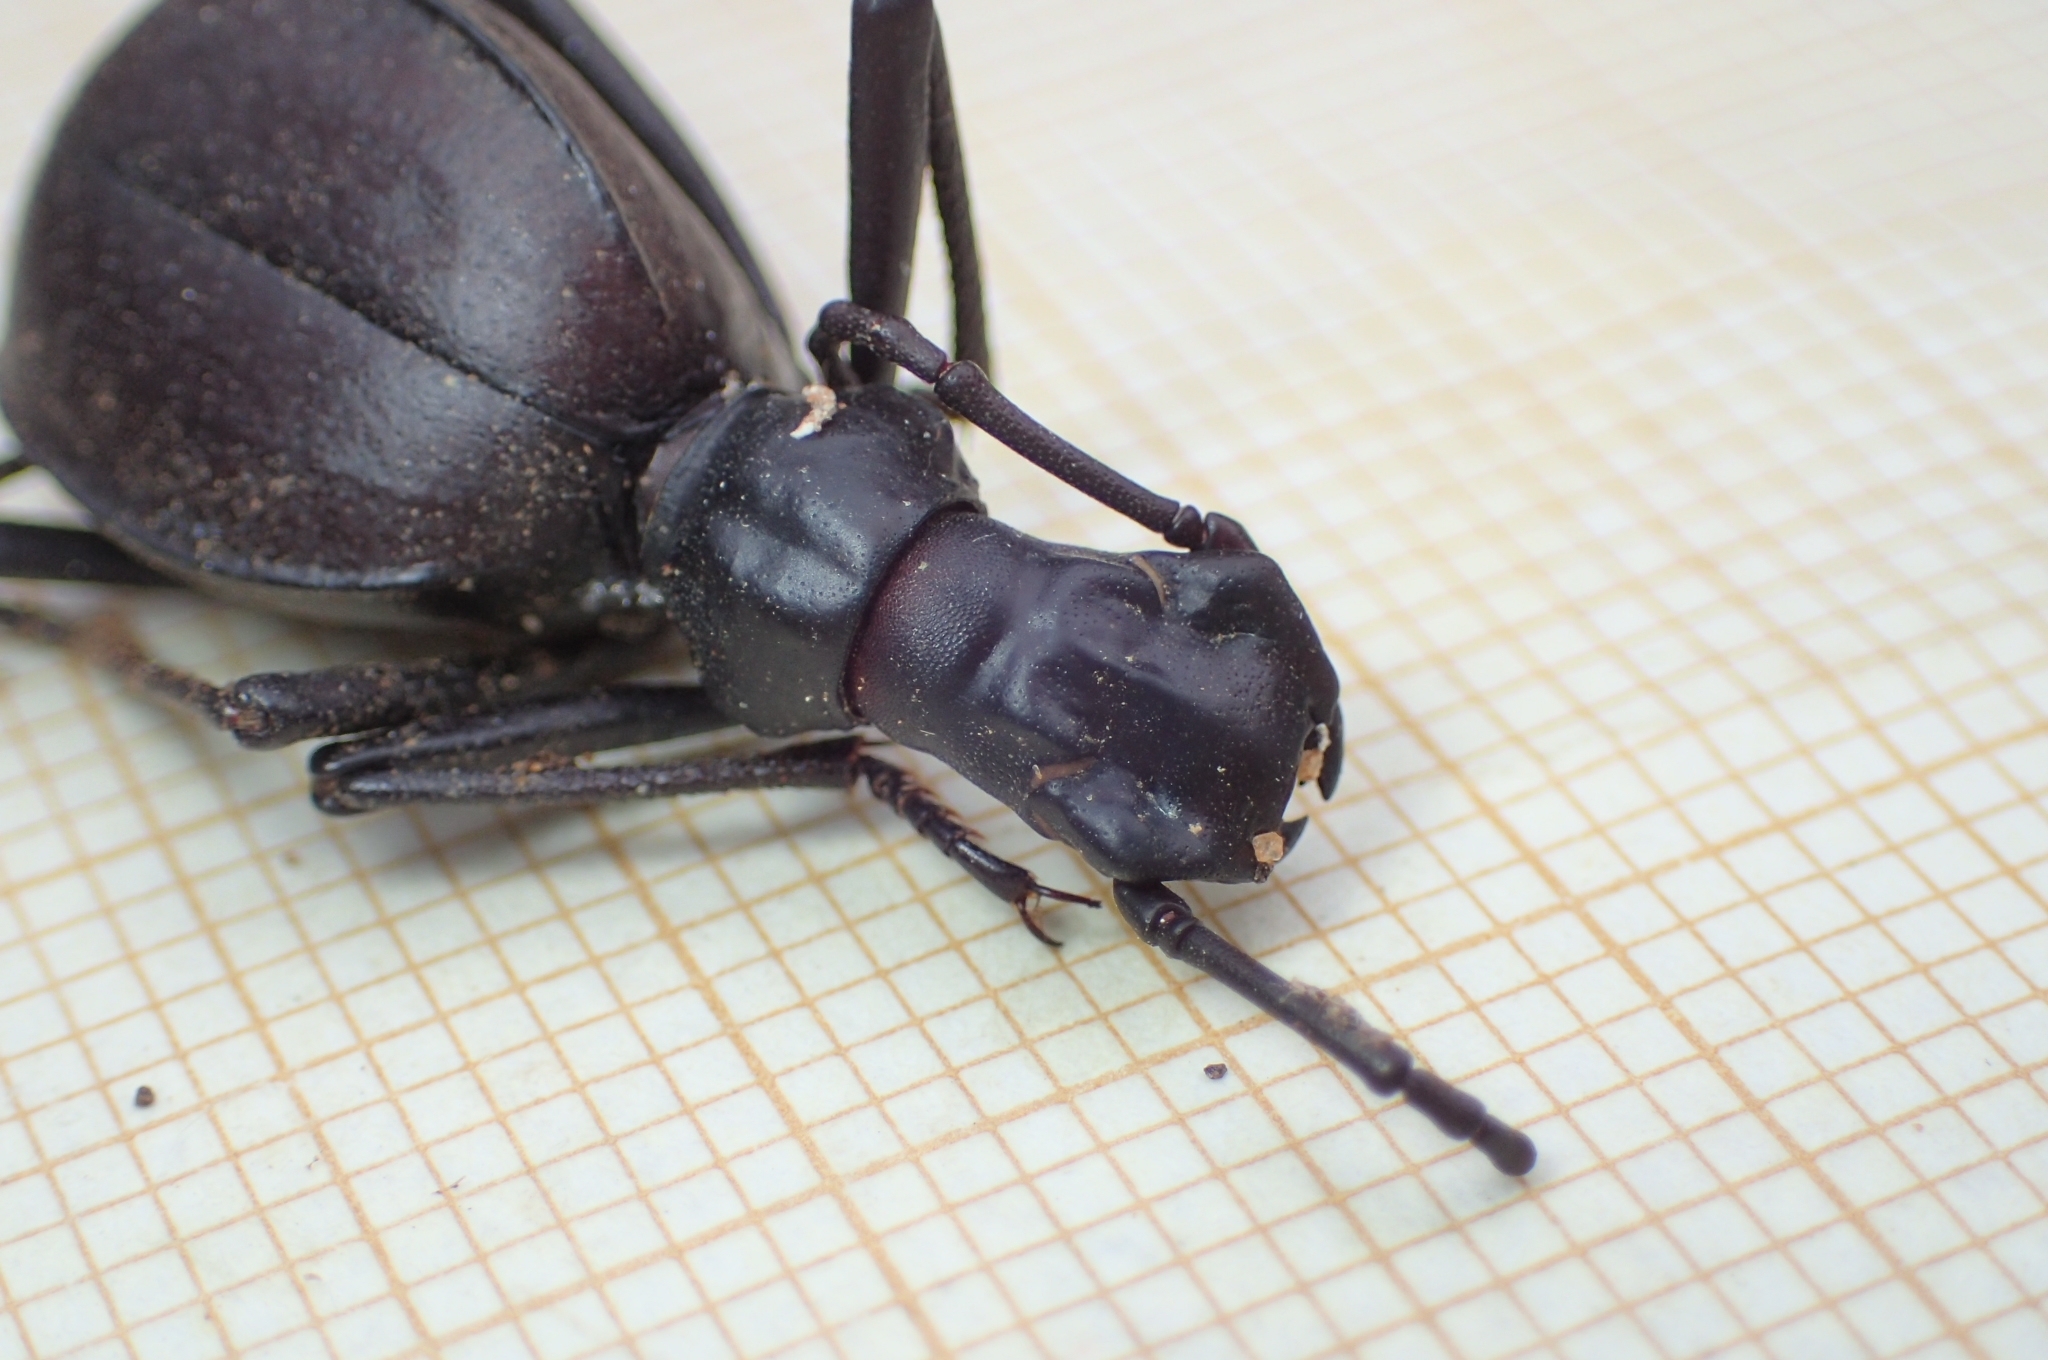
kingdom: Animalia
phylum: Arthropoda
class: Insecta
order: Coleoptera
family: Tenebrionidae
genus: Leptoderis
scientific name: Leptoderis solieri
